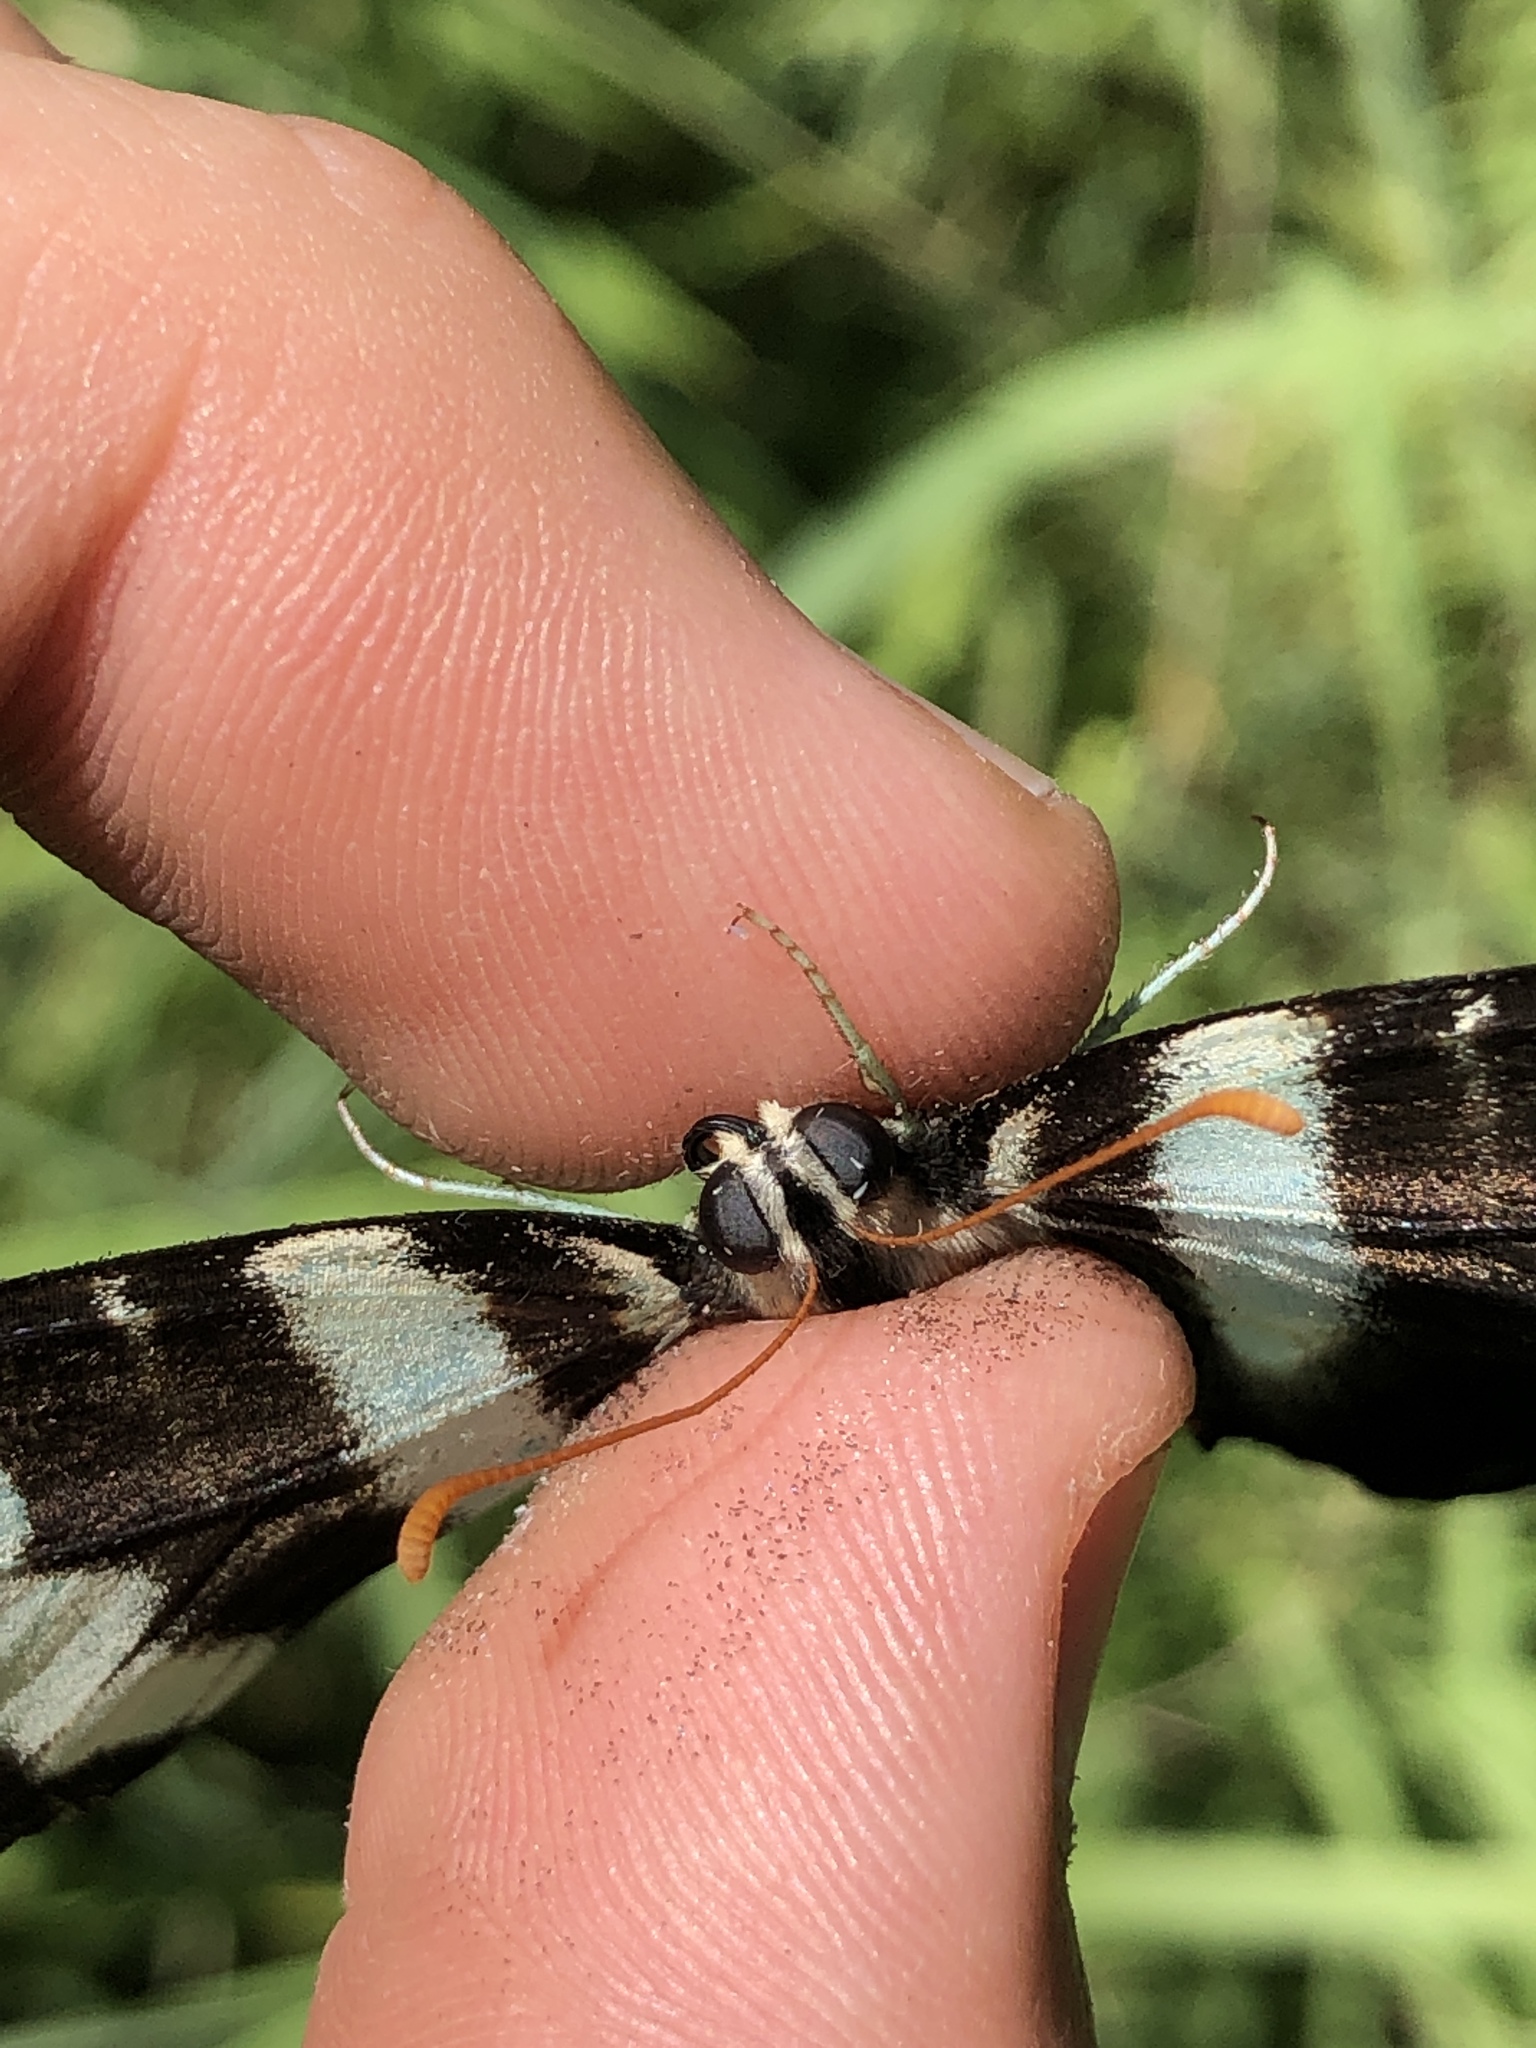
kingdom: Animalia
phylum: Arthropoda
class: Insecta
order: Lepidoptera
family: Papilionidae
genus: Protographium
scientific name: Protographium marcellus
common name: Zebra swallowtail
